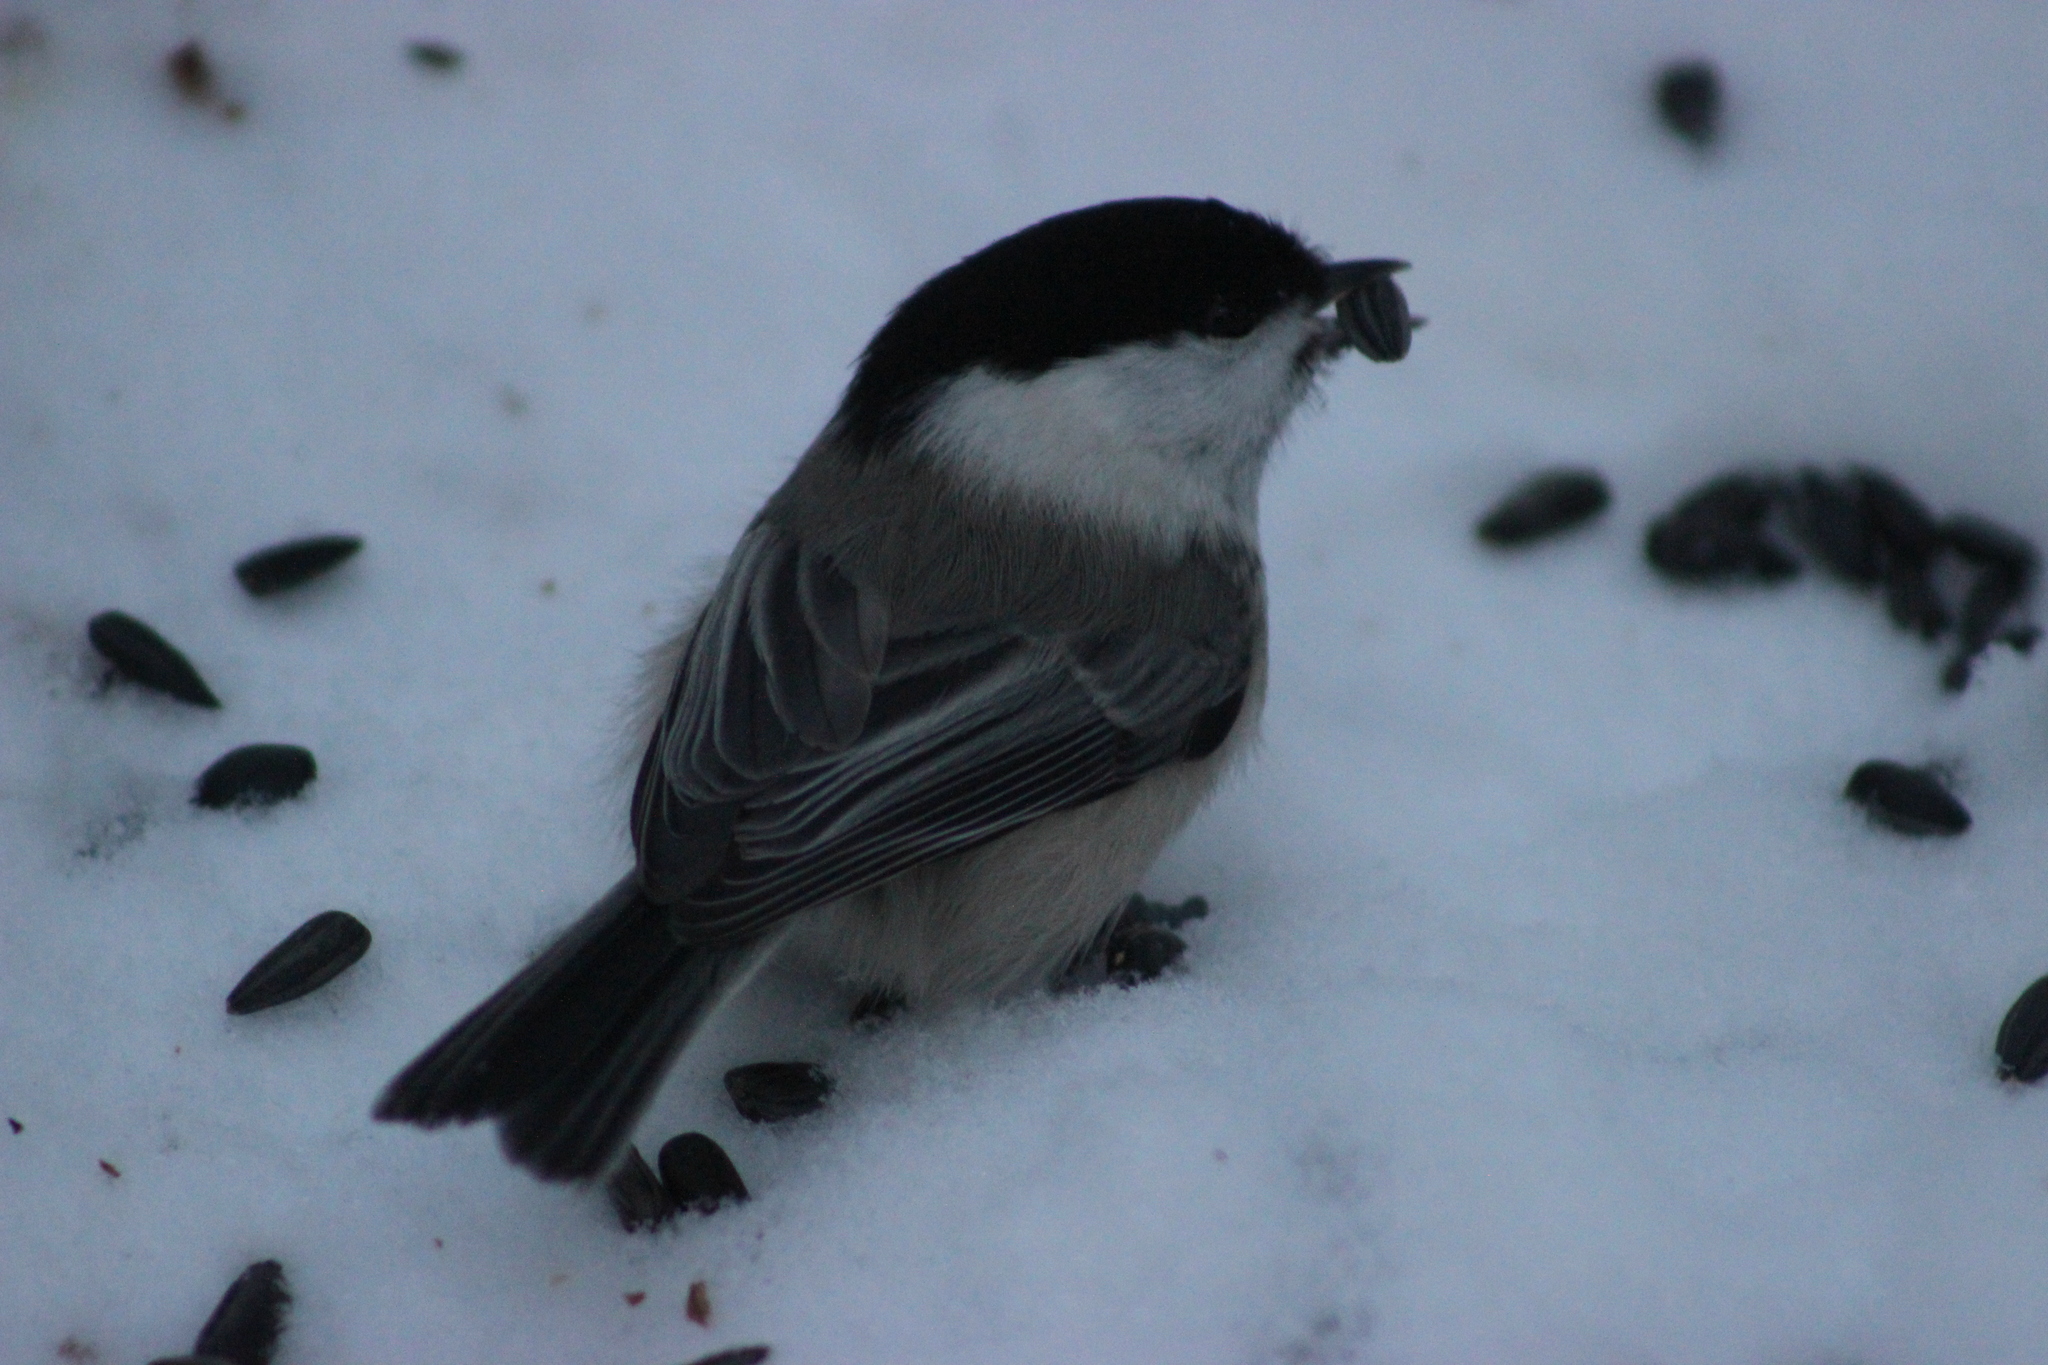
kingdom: Animalia
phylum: Chordata
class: Aves
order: Passeriformes
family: Paridae
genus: Poecile
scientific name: Poecile montanus
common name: Willow tit
